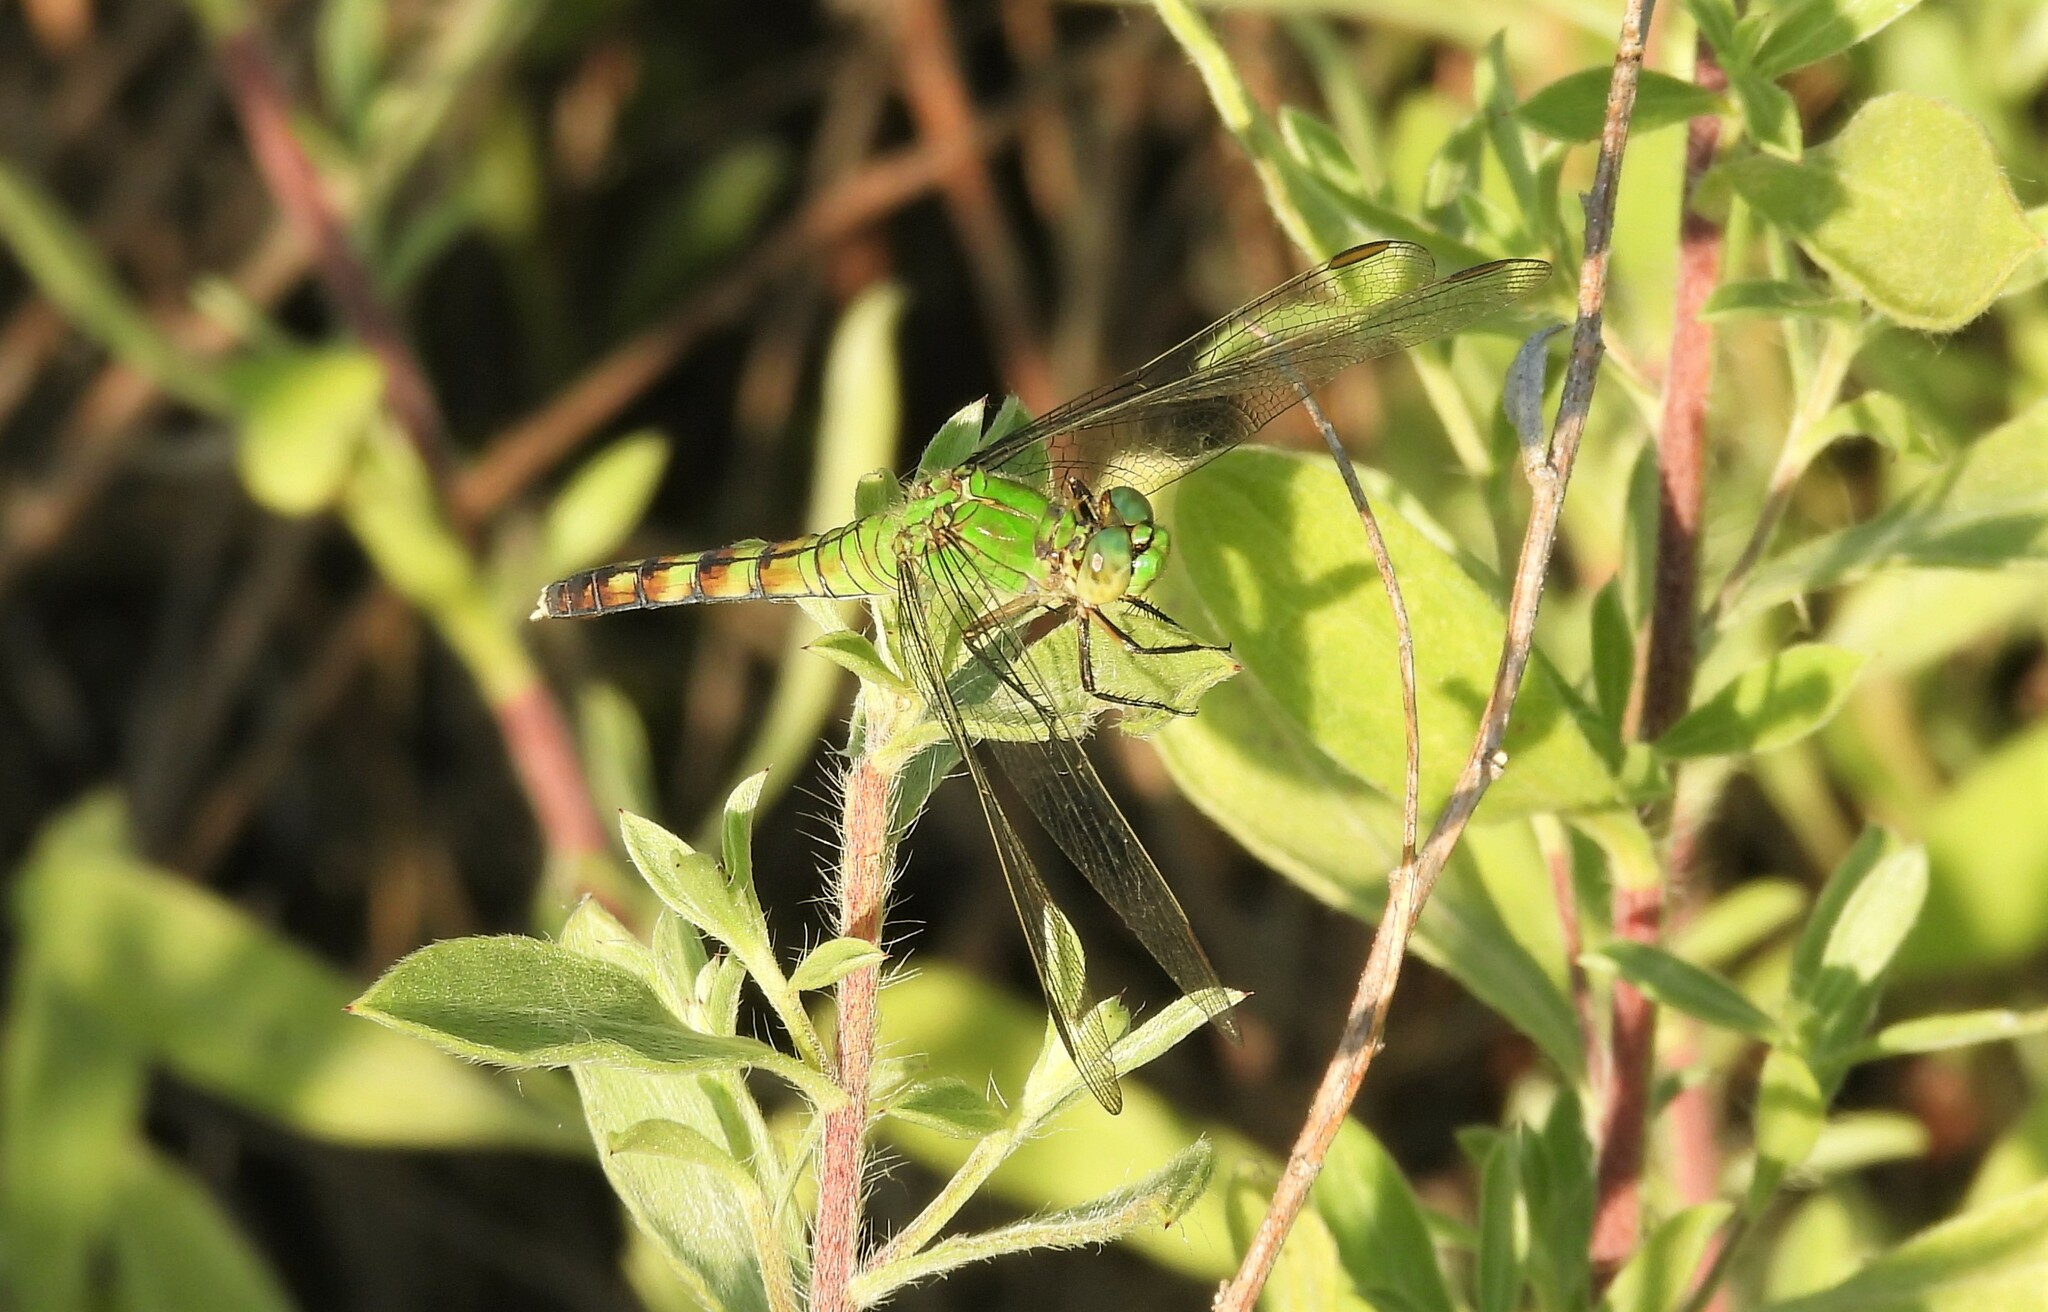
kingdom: Animalia
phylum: Arthropoda
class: Insecta
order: Odonata
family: Libellulidae
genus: Erythemis
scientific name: Erythemis simplicicollis
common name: Eastern pondhawk
